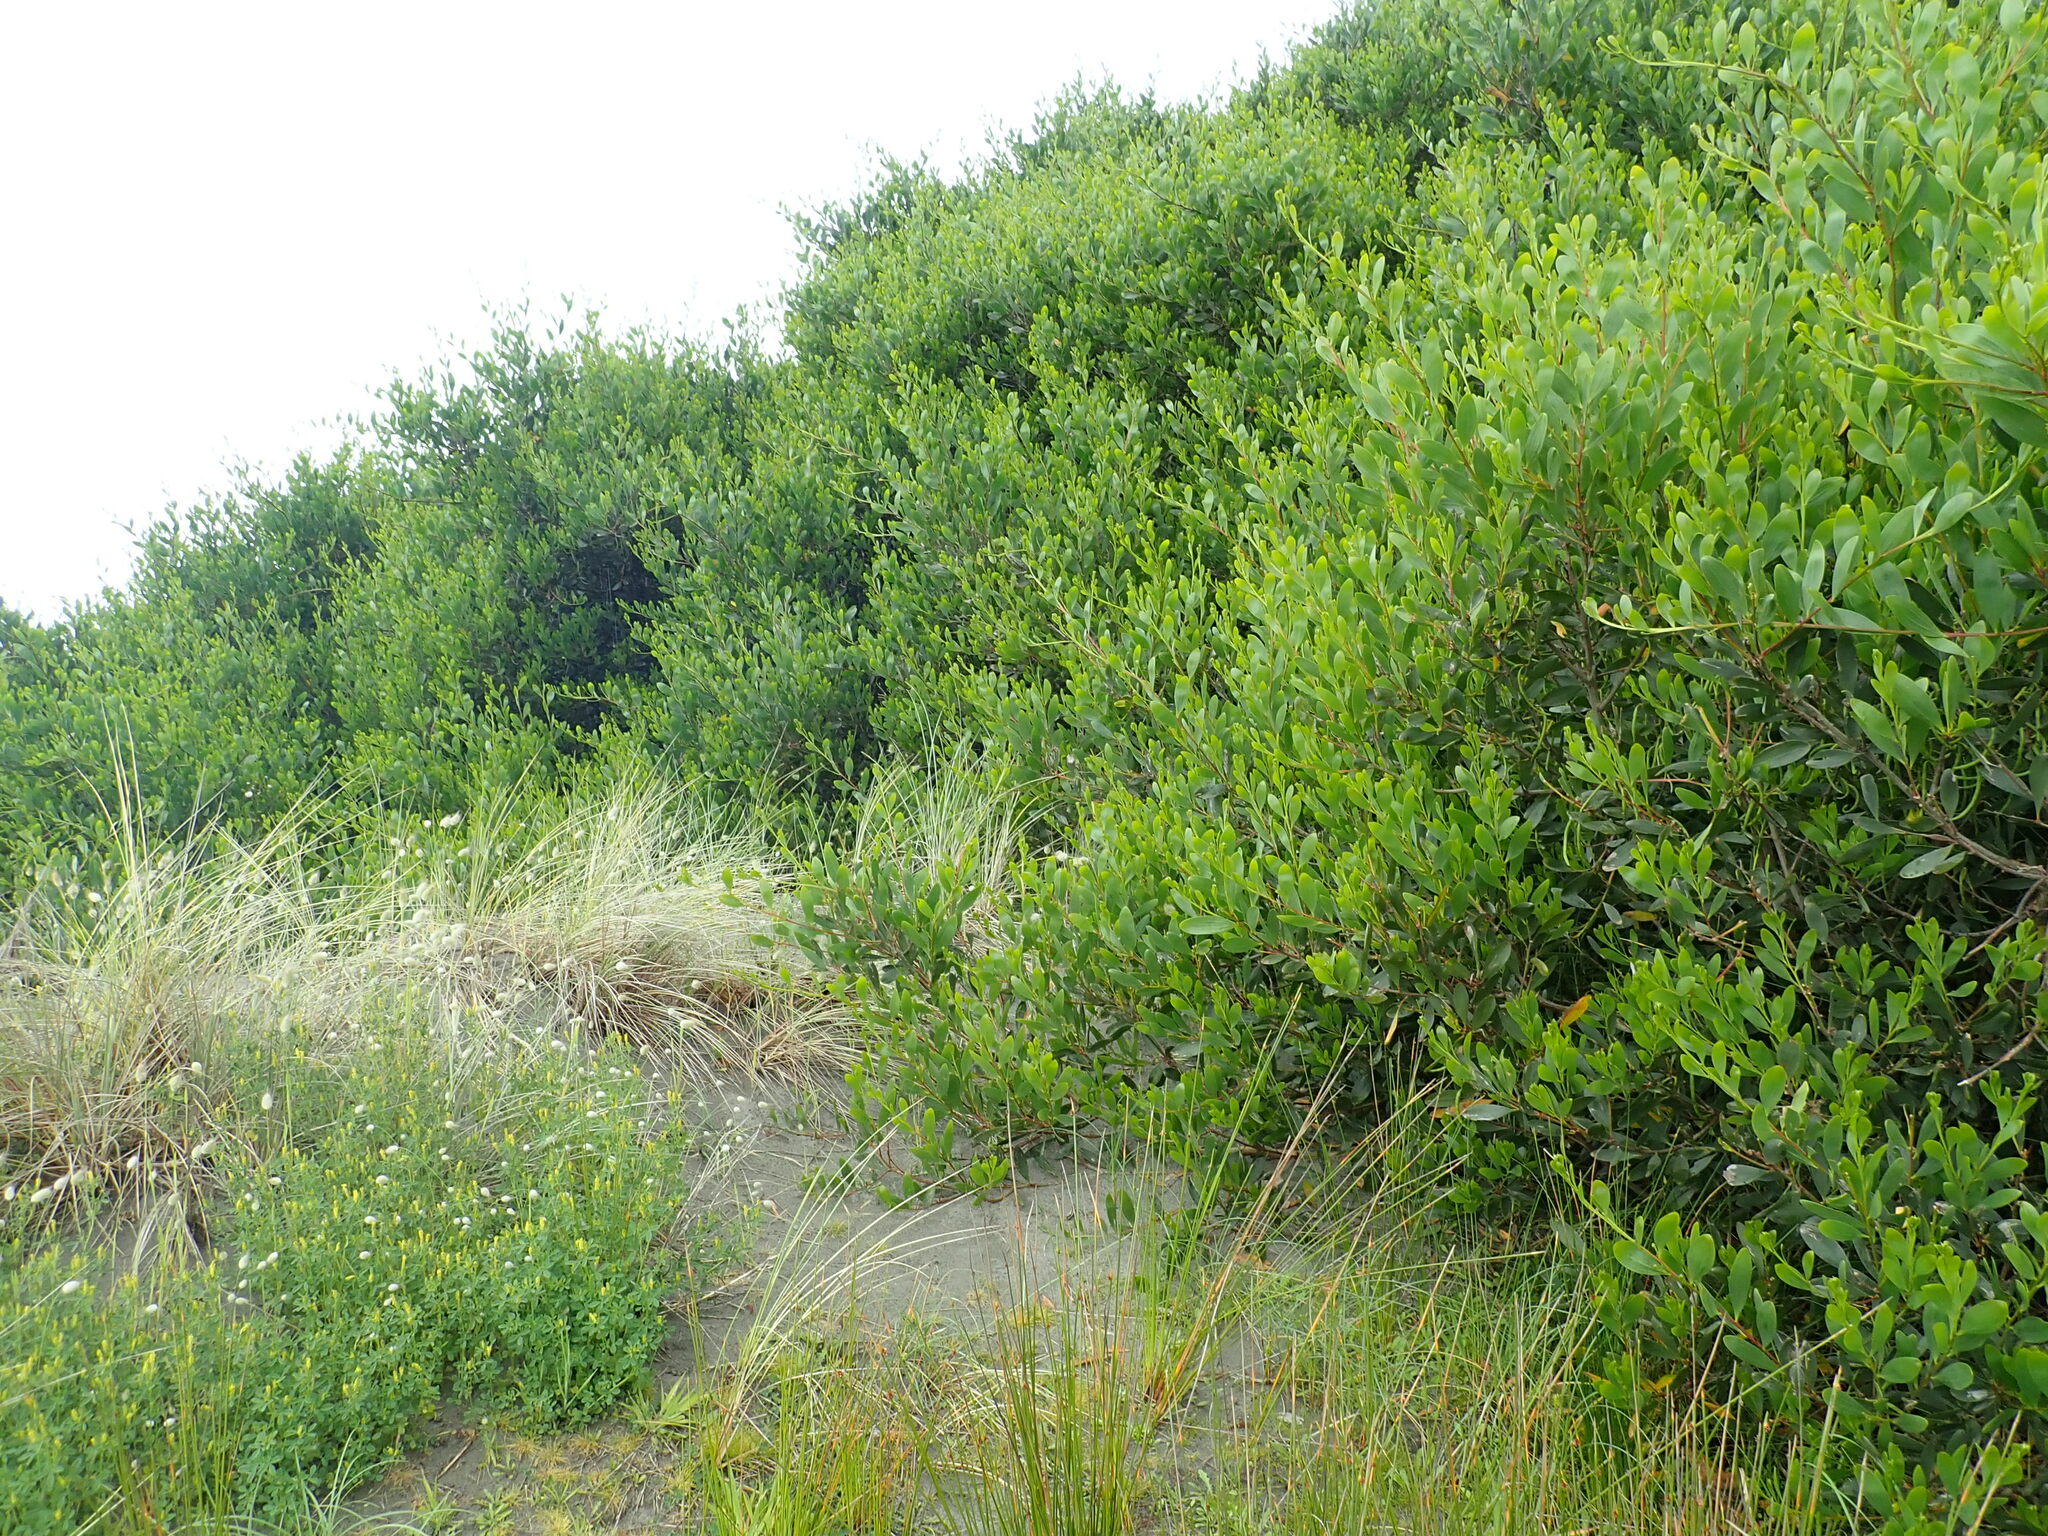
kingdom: Plantae
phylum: Tracheophyta
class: Magnoliopsida
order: Fabales
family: Fabaceae
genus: Acacia
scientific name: Acacia longifolia
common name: Sydney golden wattle
